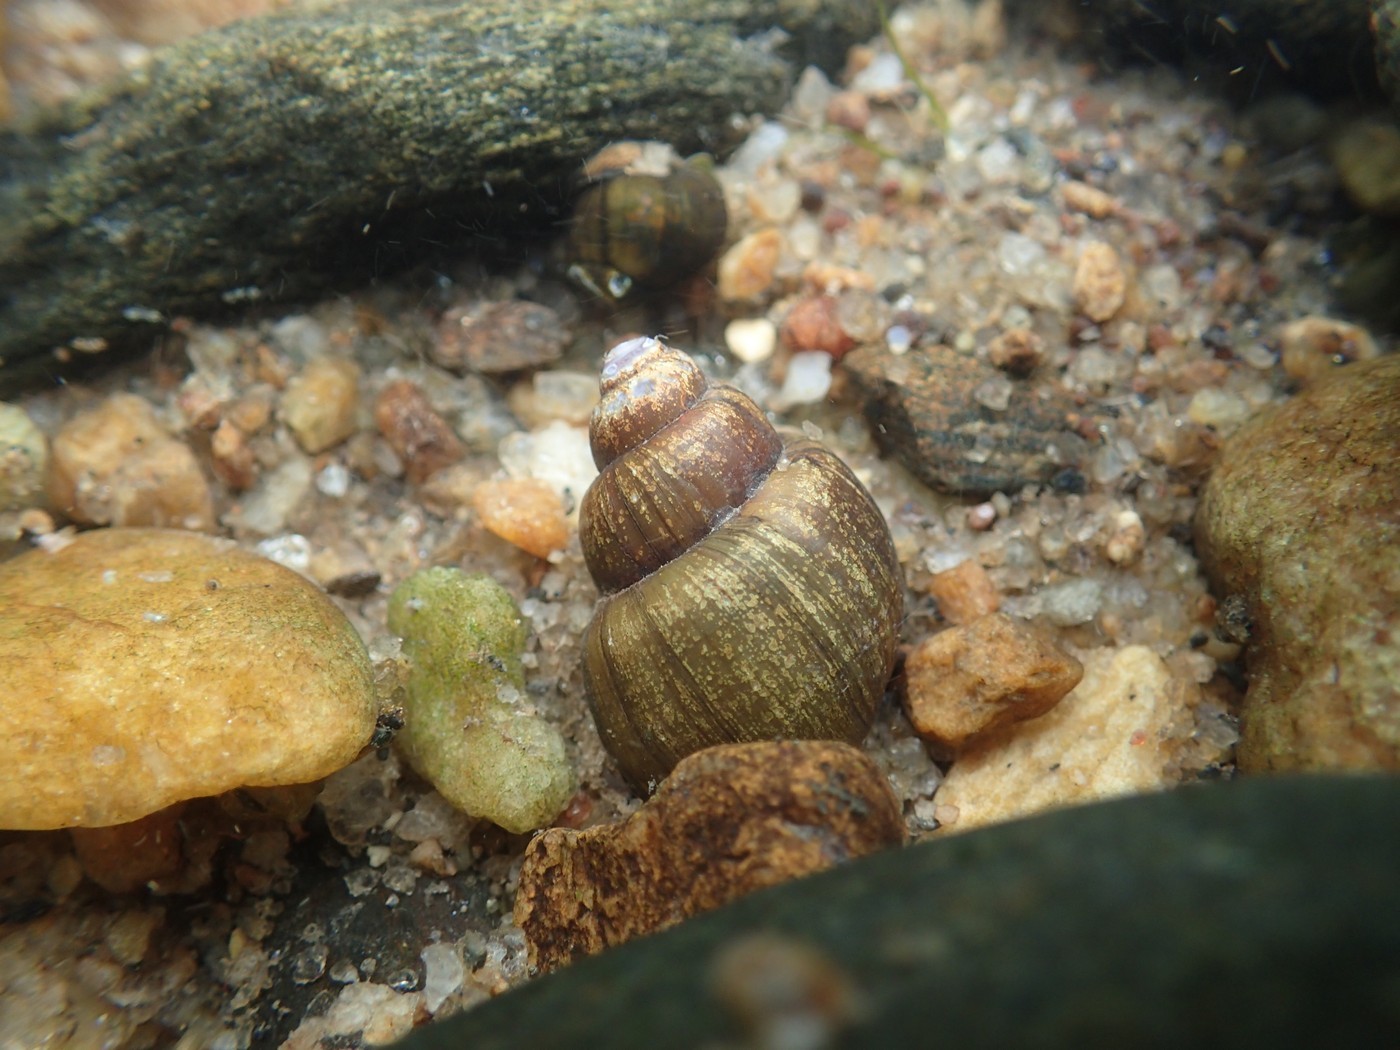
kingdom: Animalia
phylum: Mollusca
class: Gastropoda
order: Architaenioglossa
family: Viviparidae
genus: Campeloma
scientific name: Campeloma decisum
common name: Pointed campeloma
